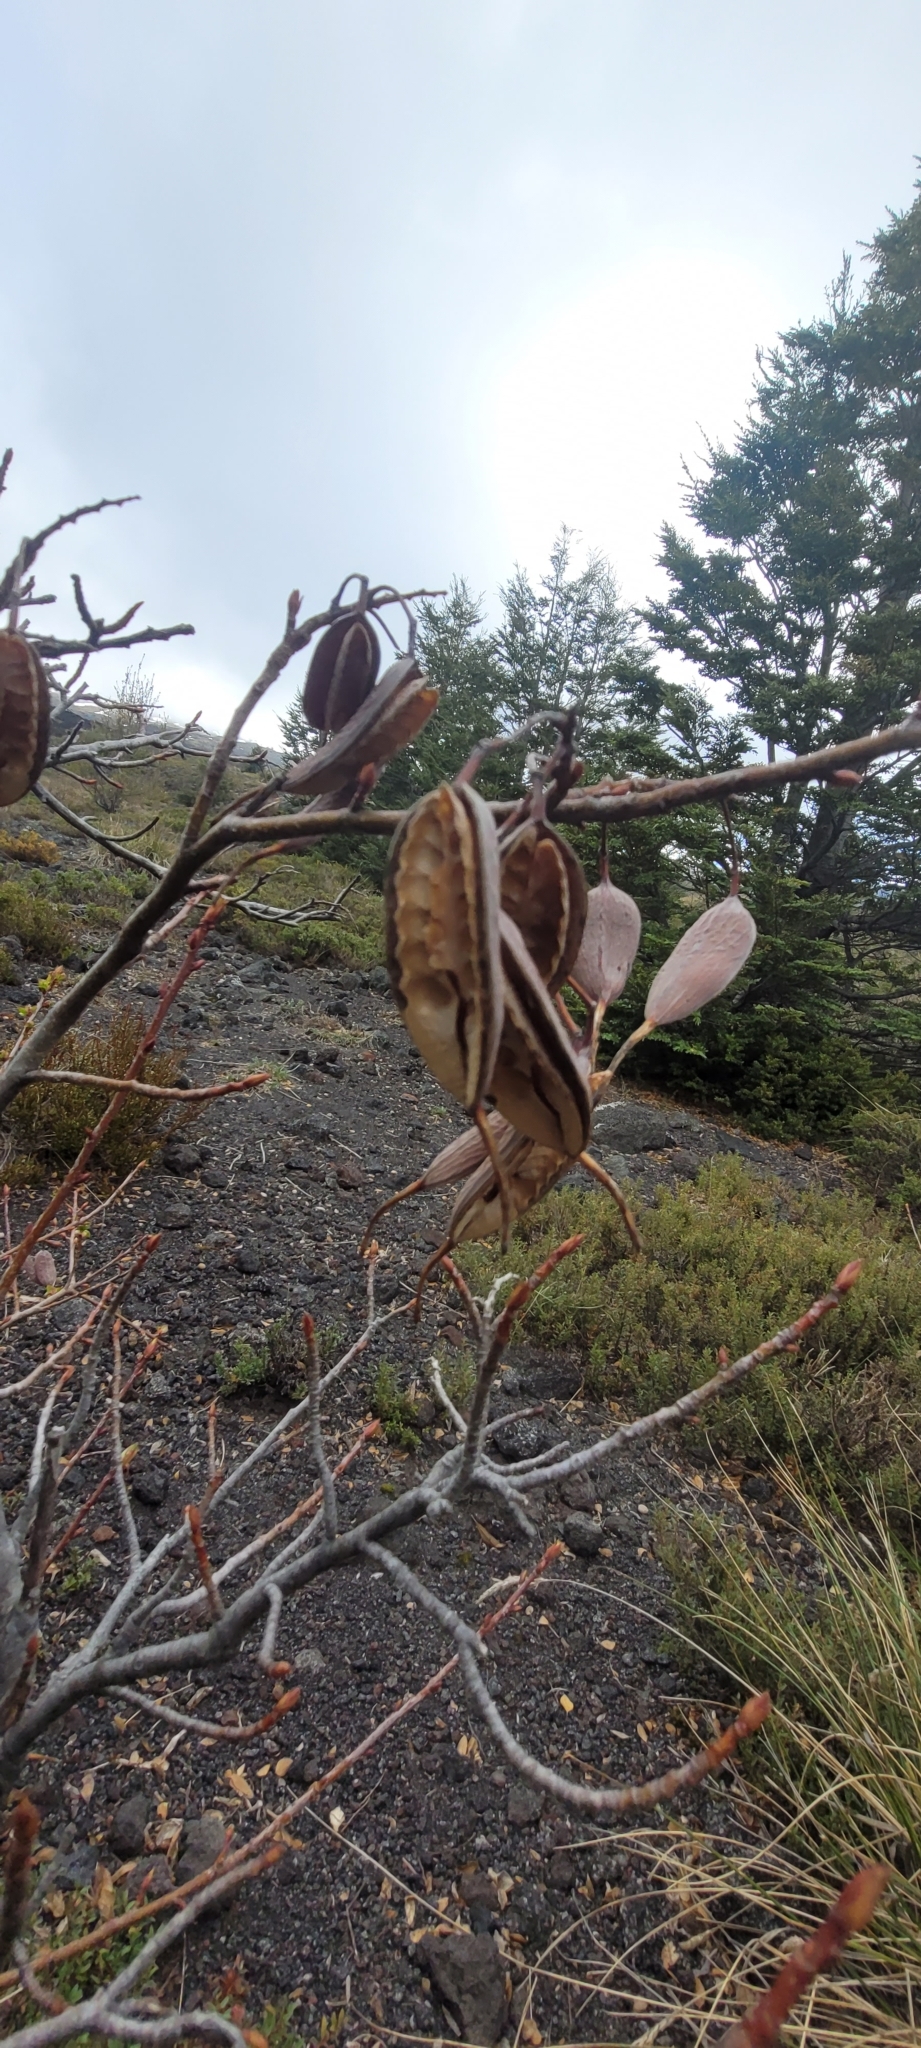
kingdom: Plantae
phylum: Tracheophyta
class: Magnoliopsida
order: Proteales
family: Proteaceae
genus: Embothrium
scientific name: Embothrium coccineum
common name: Chilean firebush
